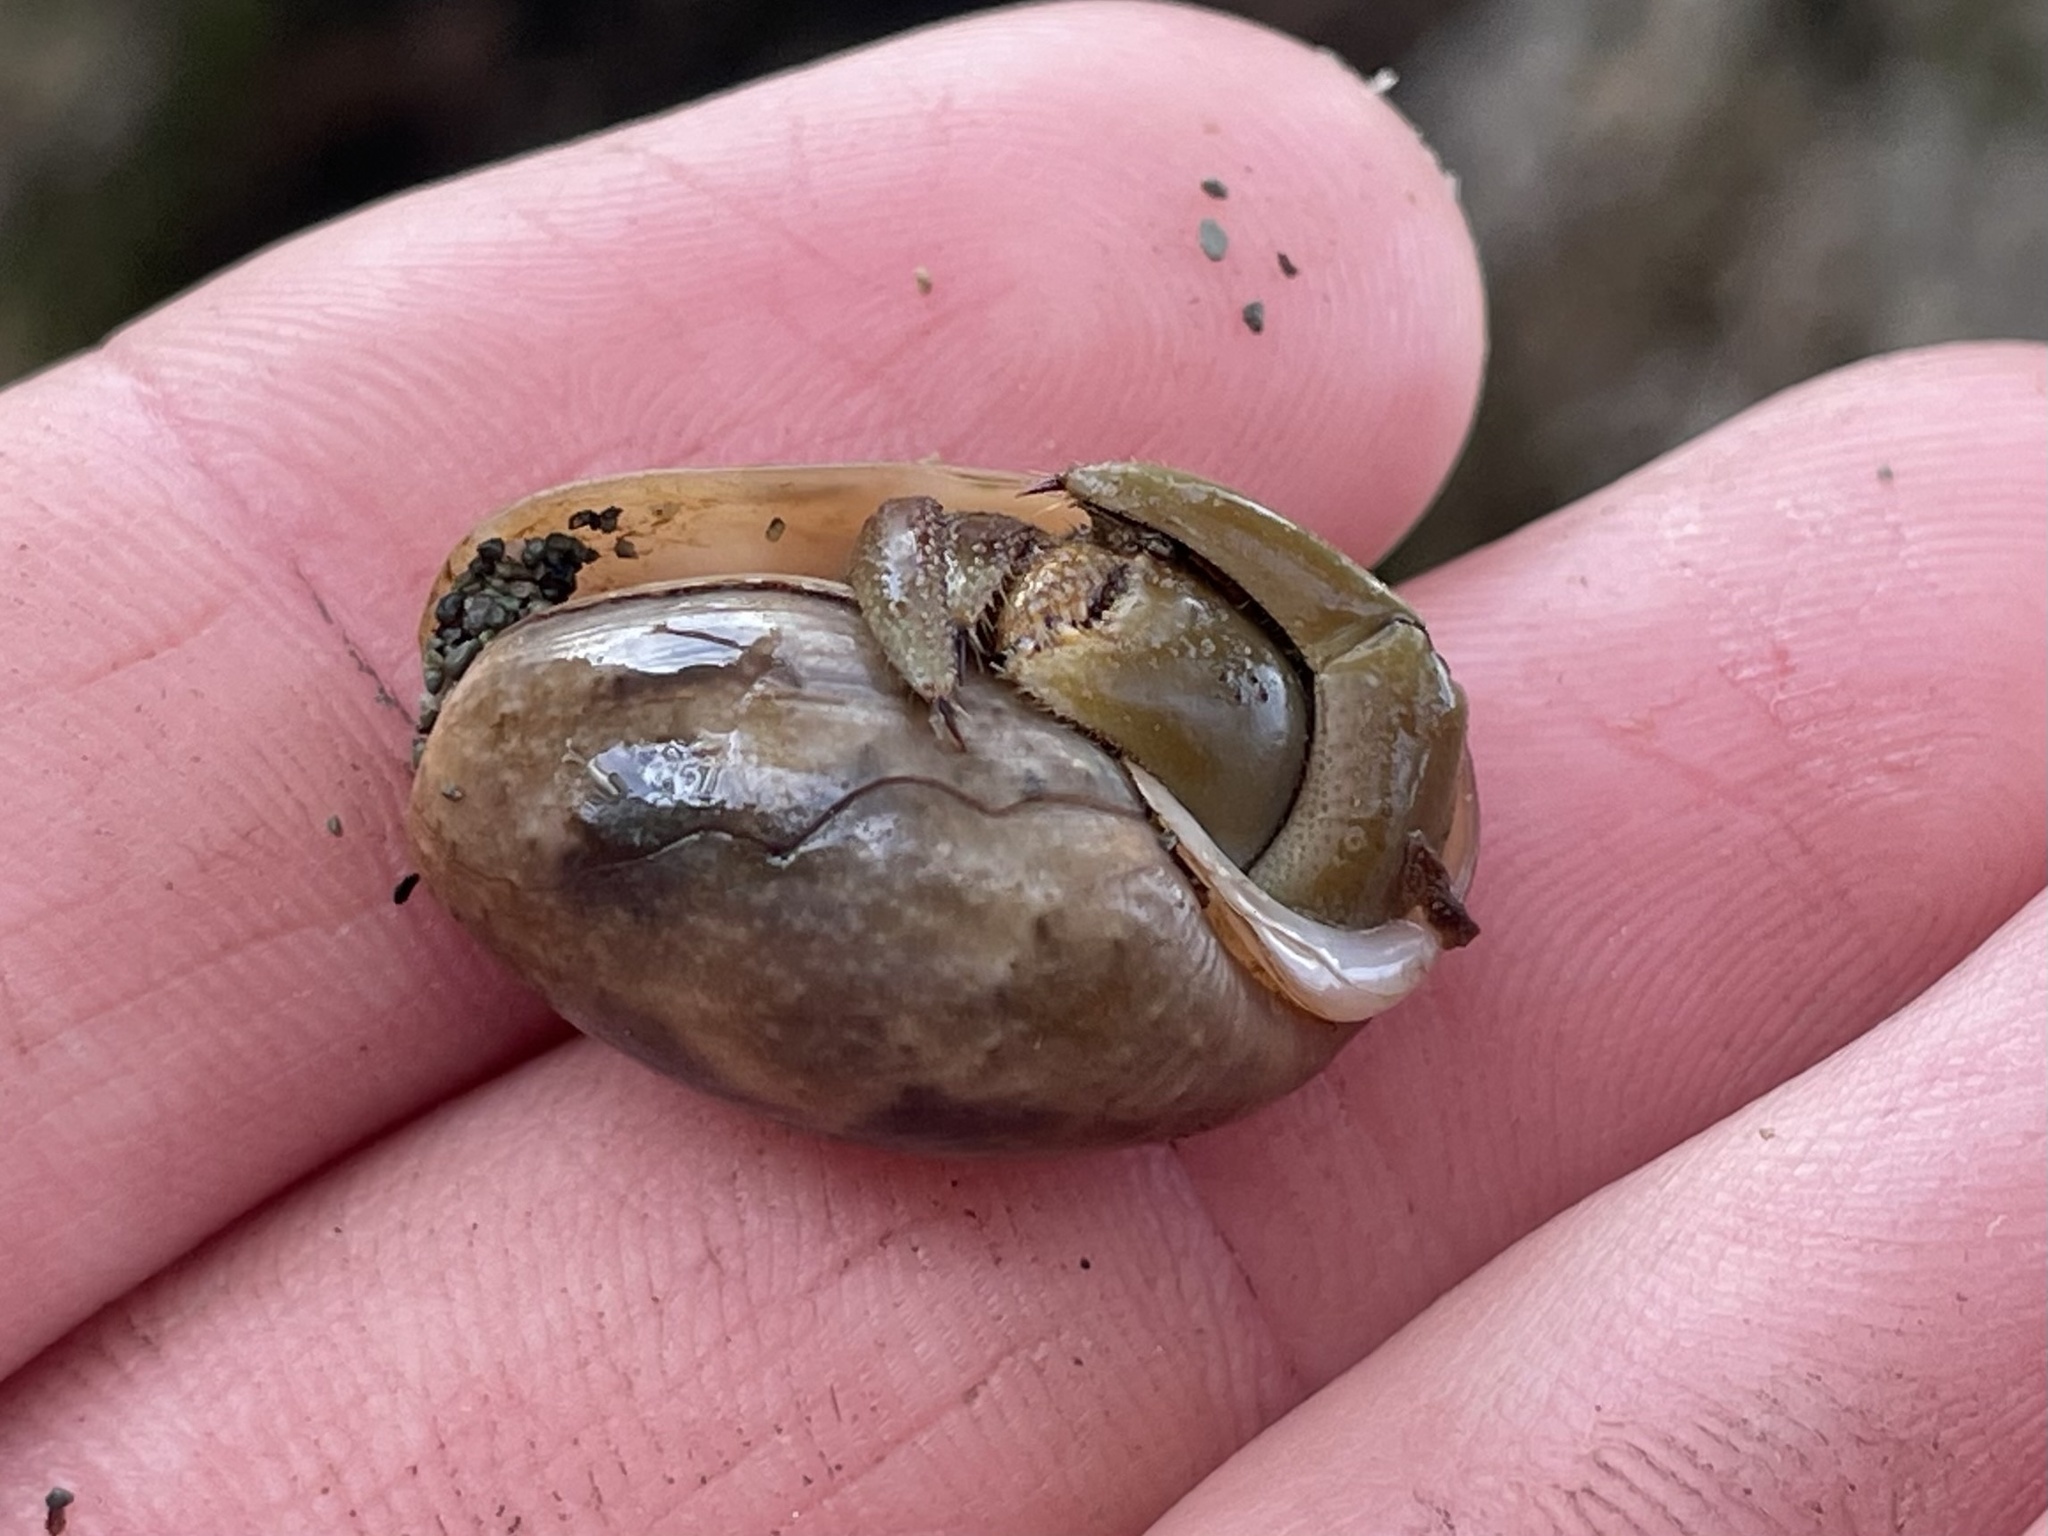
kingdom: Animalia
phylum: Mollusca
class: Gastropoda
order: Cephalaspidea
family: Bullidae
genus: Bulla
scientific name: Bulla occidentalis
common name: Common west-indian bubble
